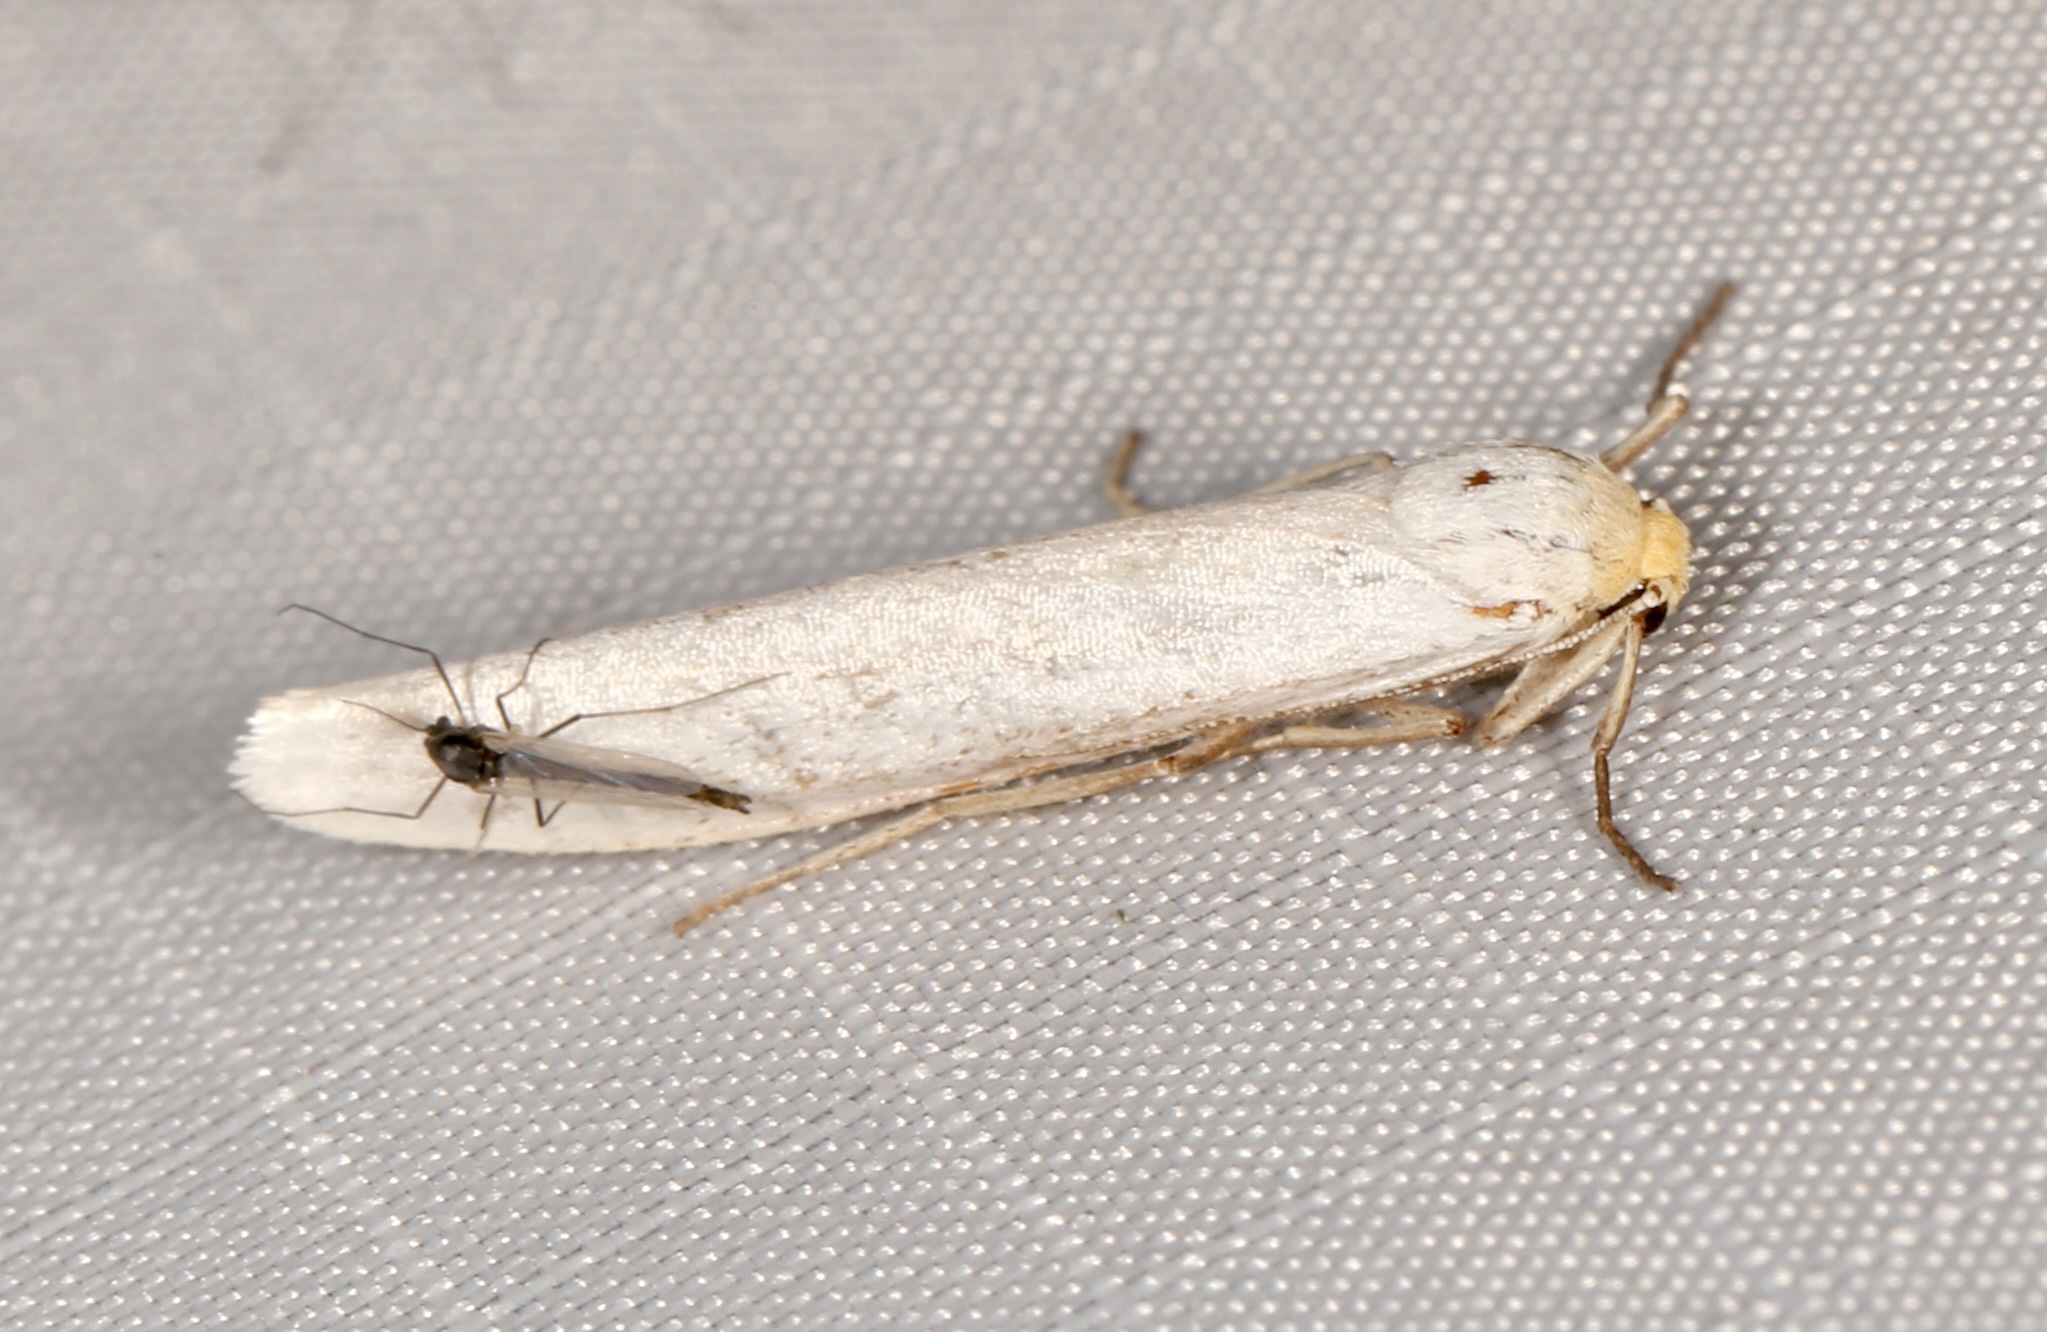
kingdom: Animalia
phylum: Arthropoda
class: Insecta
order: Lepidoptera
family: Erebidae
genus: Crambidia
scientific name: Crambidia cephalica
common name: Yellow-headed lichen moth
